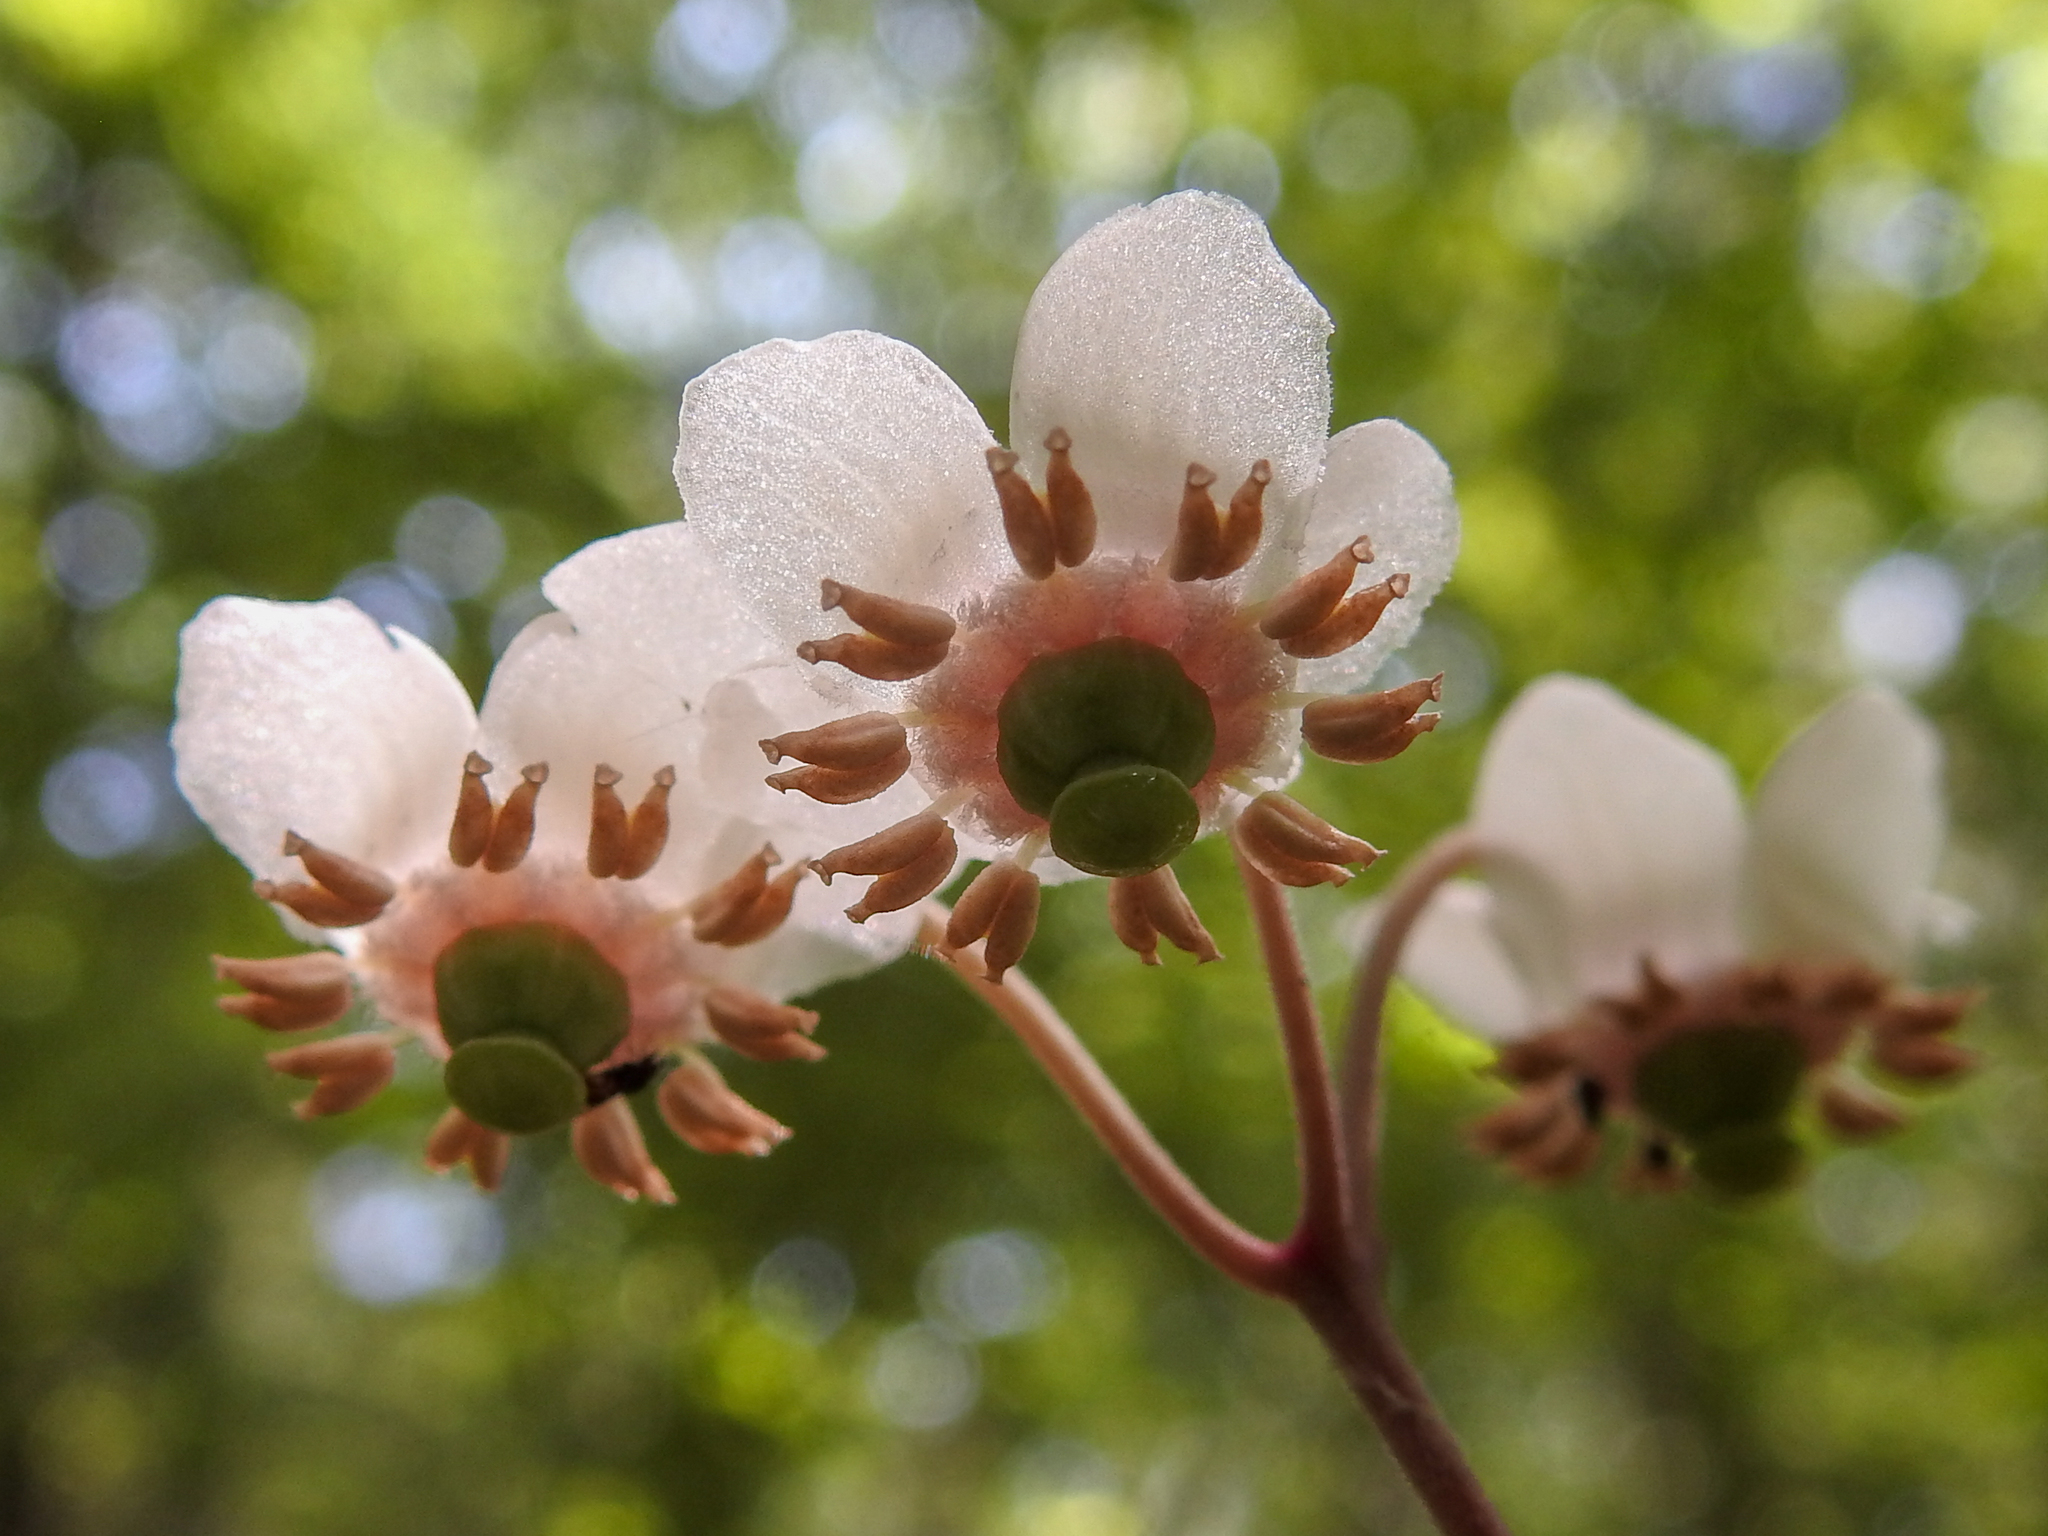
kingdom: Plantae
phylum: Tracheophyta
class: Magnoliopsida
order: Ericales
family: Ericaceae
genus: Chimaphila
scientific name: Chimaphila maculata
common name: Spotted pipsissewa
